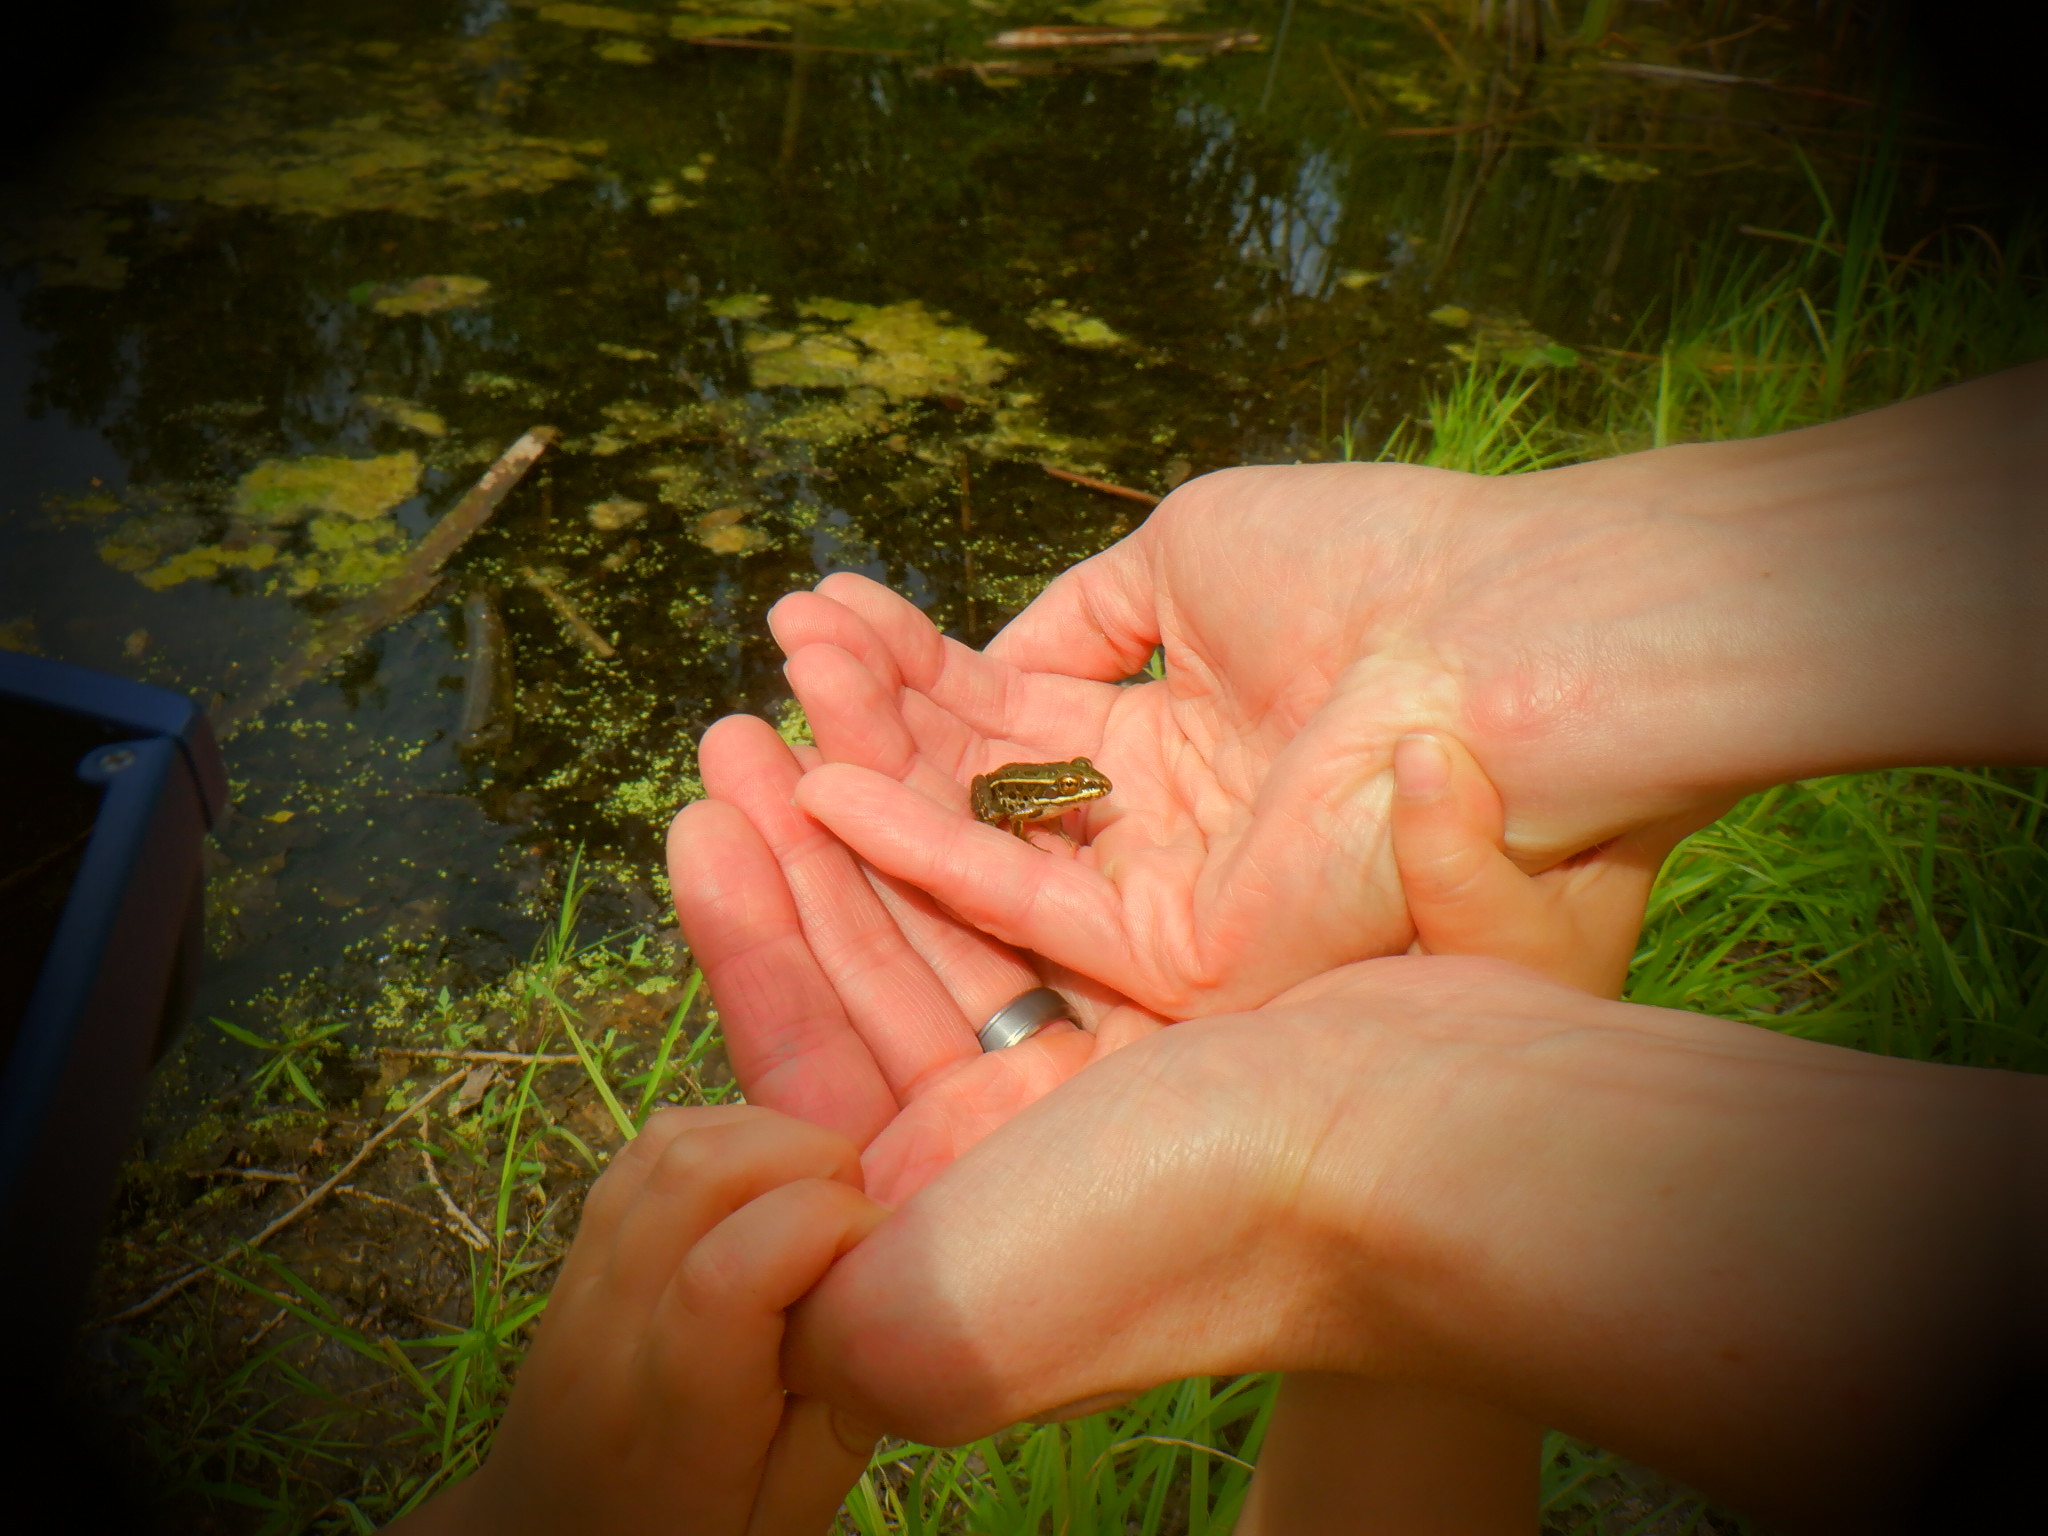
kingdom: Animalia
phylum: Chordata
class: Amphibia
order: Anura
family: Ranidae
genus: Lithobates
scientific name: Lithobates pipiens
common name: Northern leopard frog
